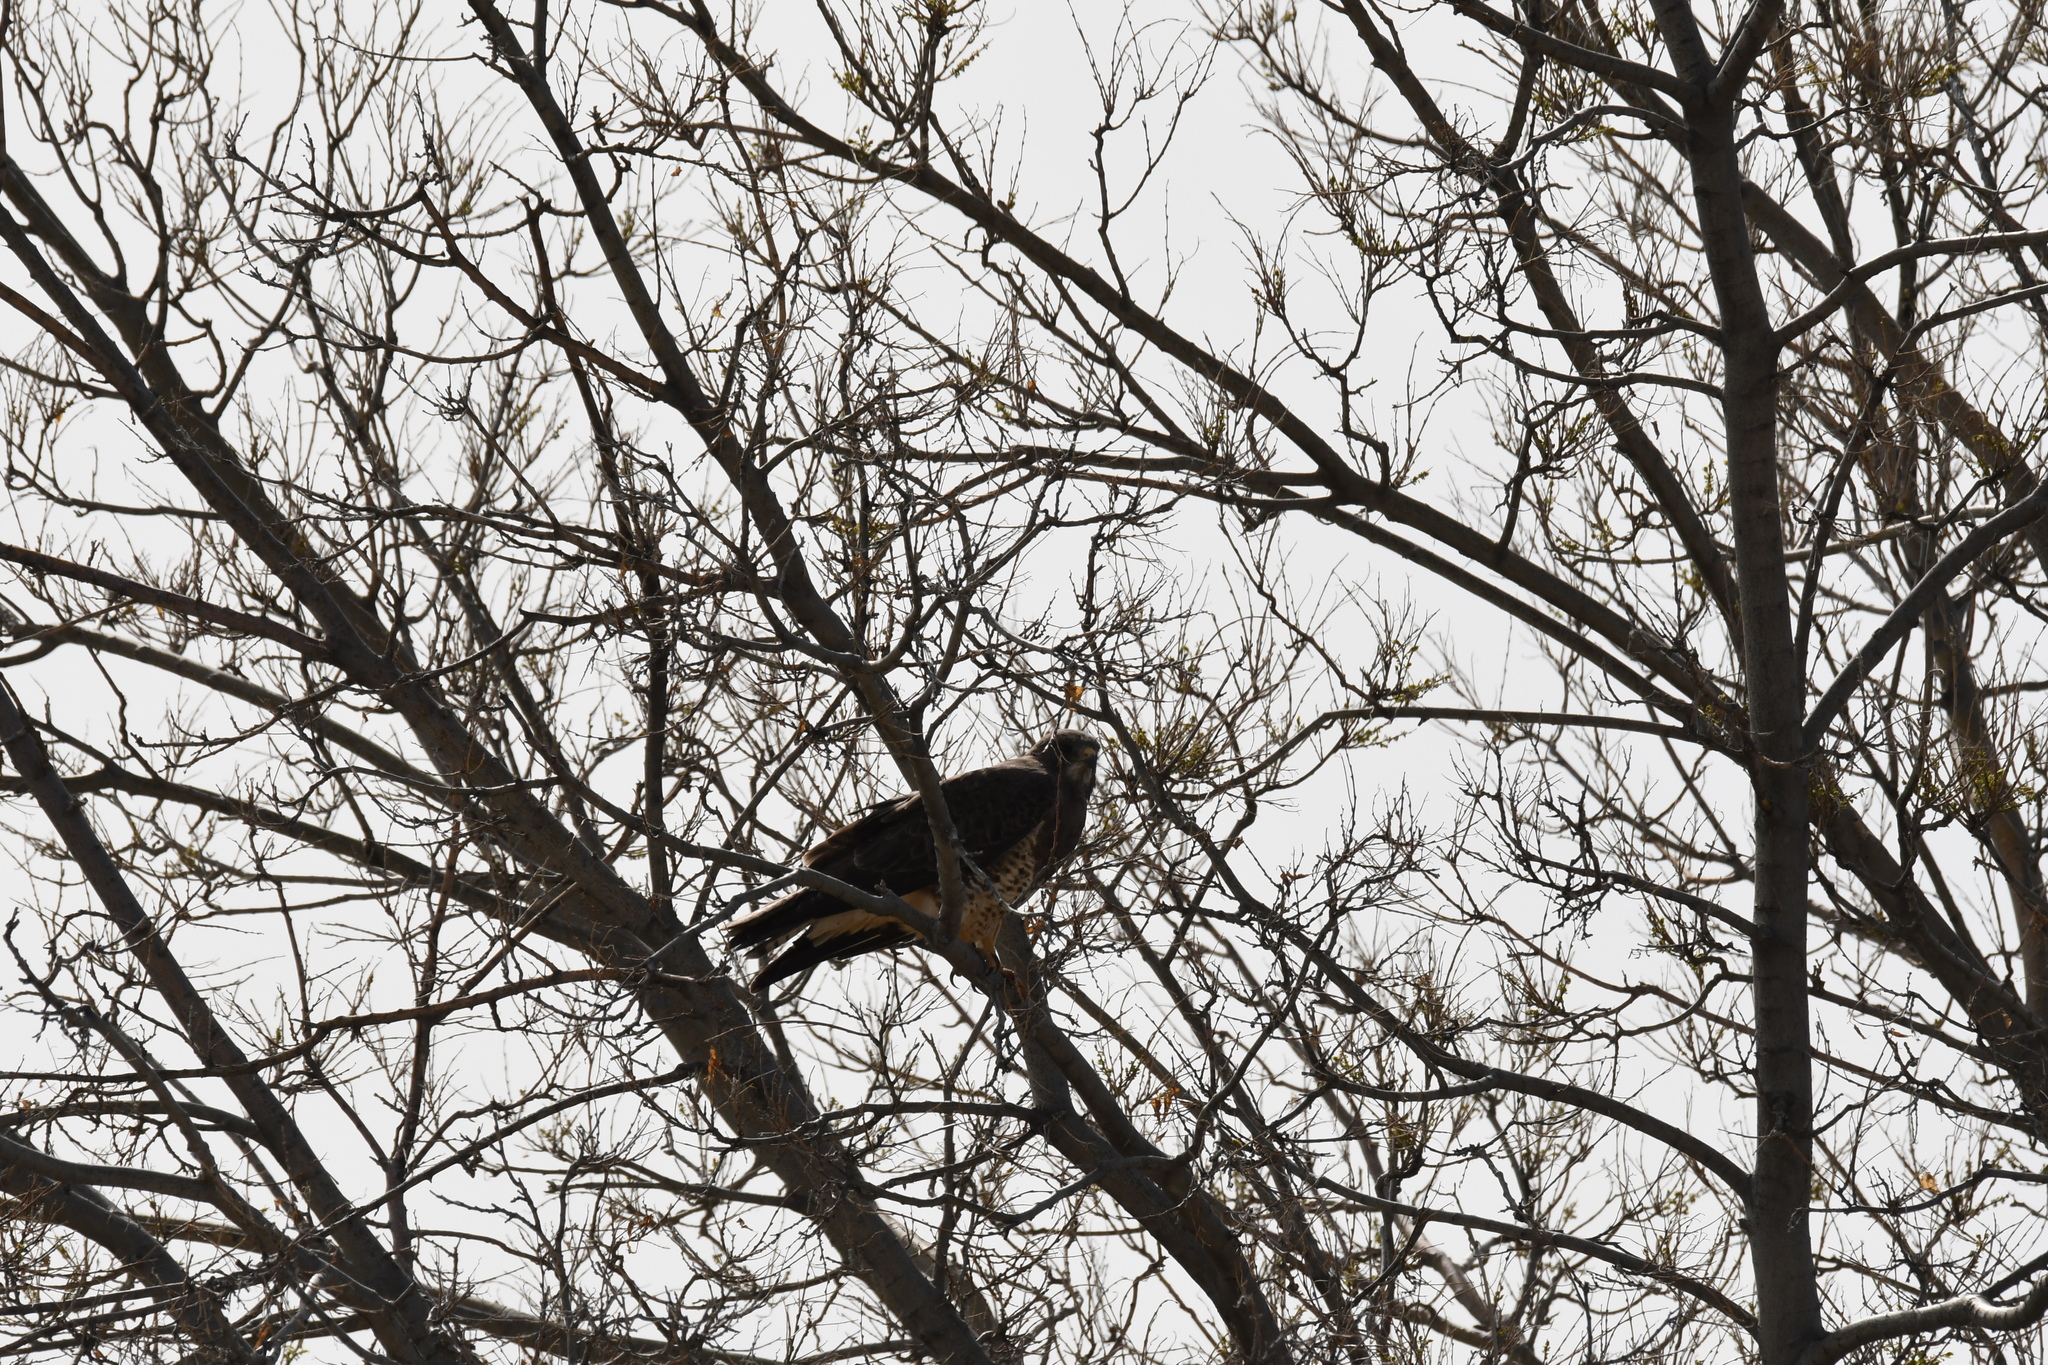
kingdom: Animalia
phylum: Chordata
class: Aves
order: Accipitriformes
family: Accipitridae
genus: Buteo
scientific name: Buteo swainsoni
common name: Swainson's hawk
